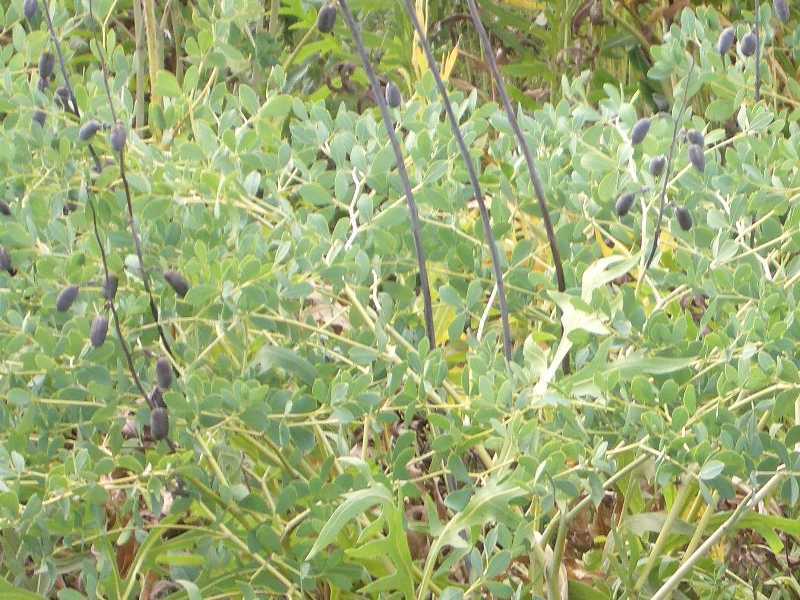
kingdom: Plantae
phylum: Tracheophyta
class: Magnoliopsida
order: Fabales
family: Fabaceae
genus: Baptisia
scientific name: Baptisia alba
